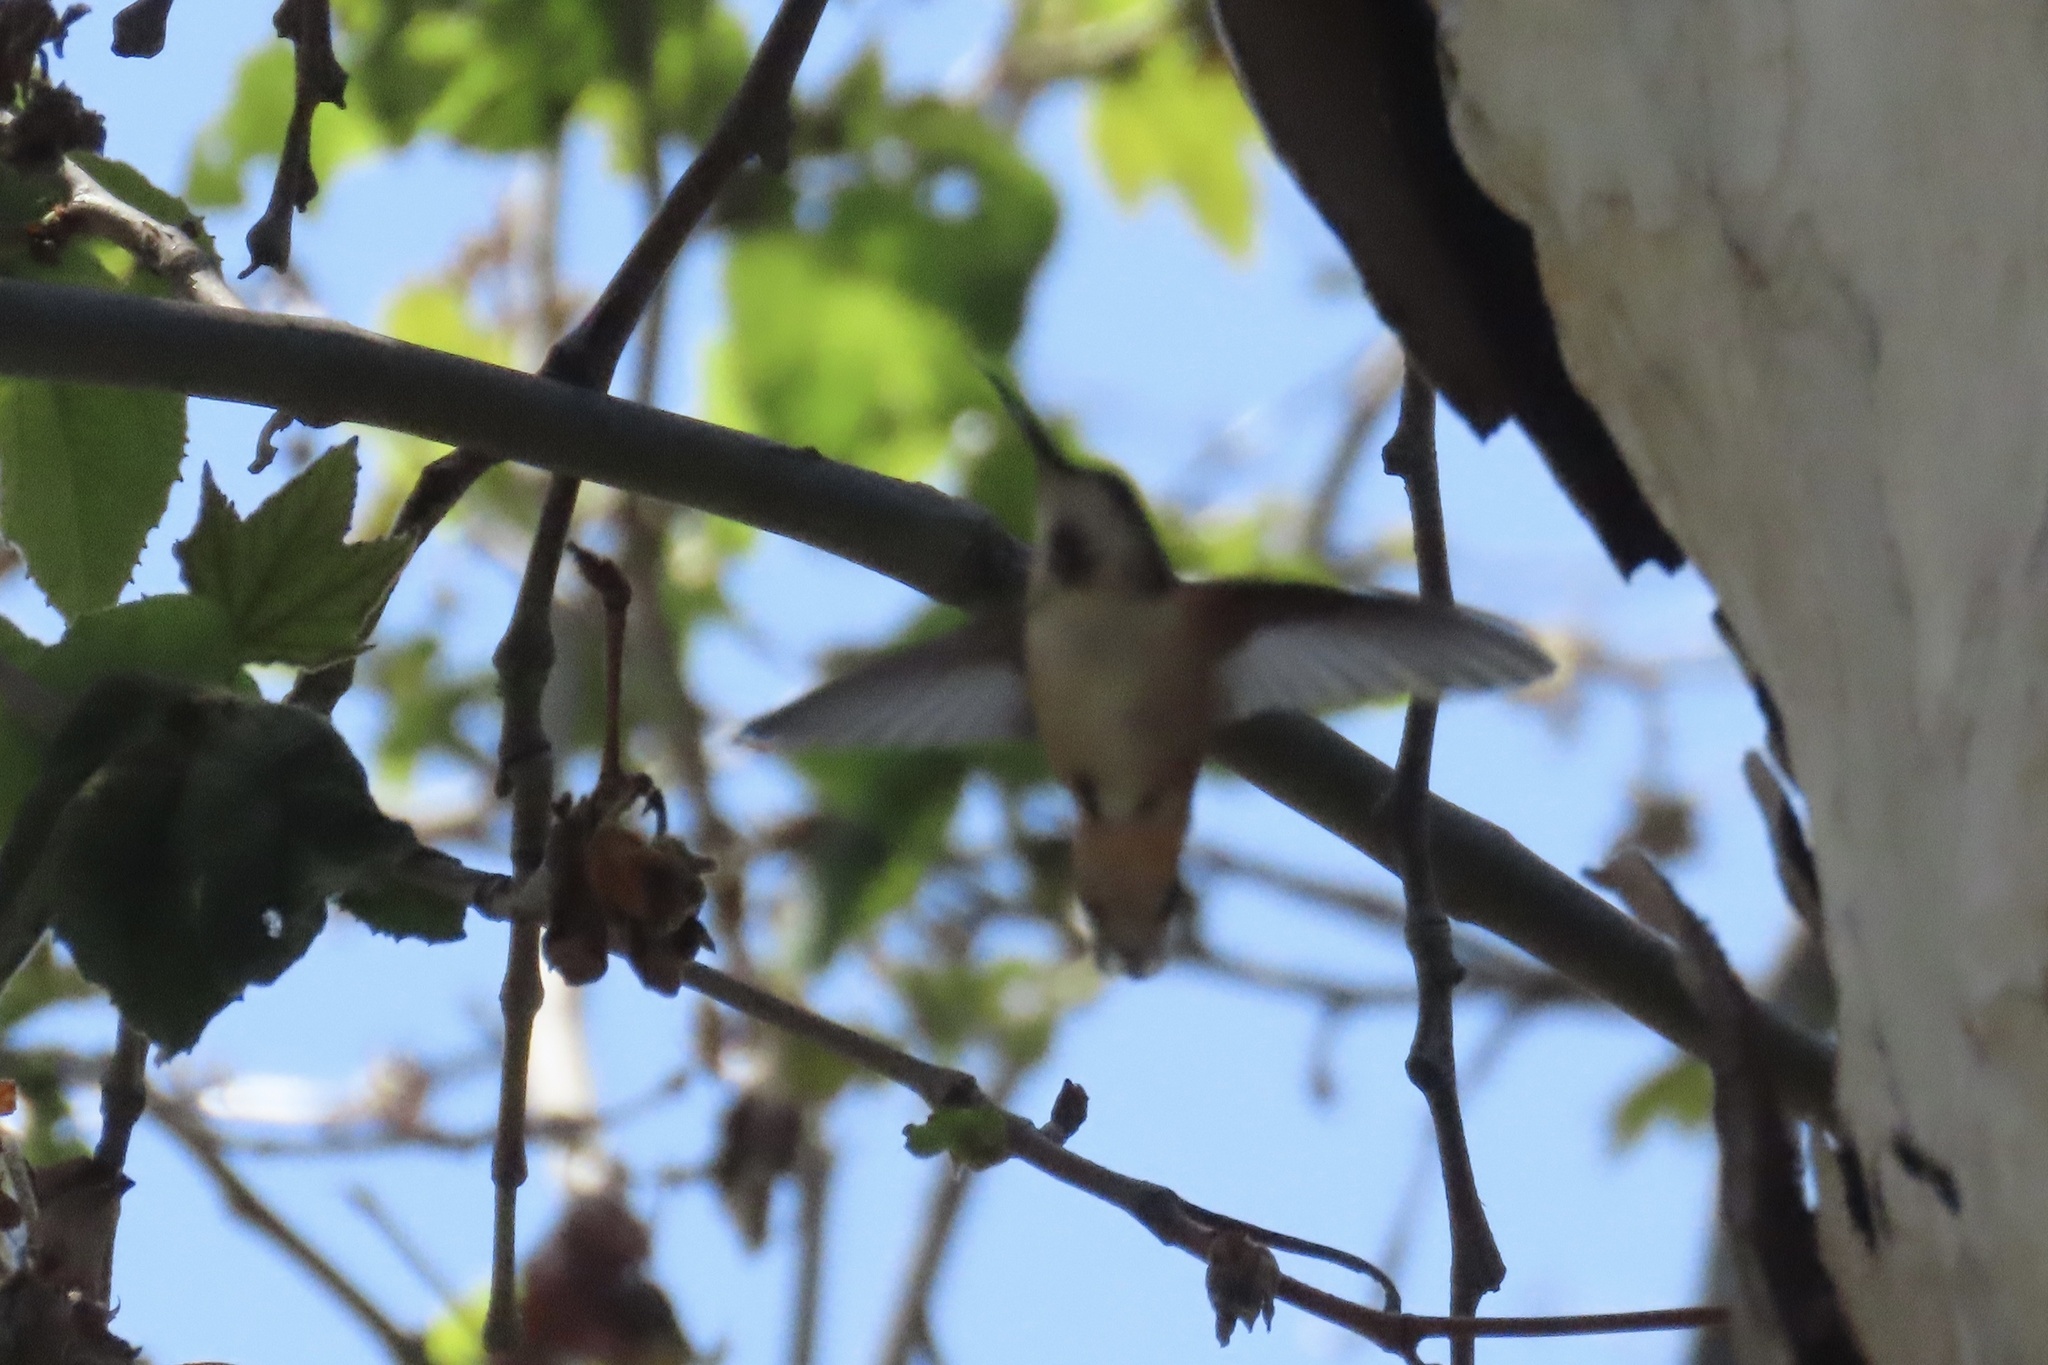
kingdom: Animalia
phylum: Chordata
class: Aves
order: Apodiformes
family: Trochilidae
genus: Selasphorus
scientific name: Selasphorus
